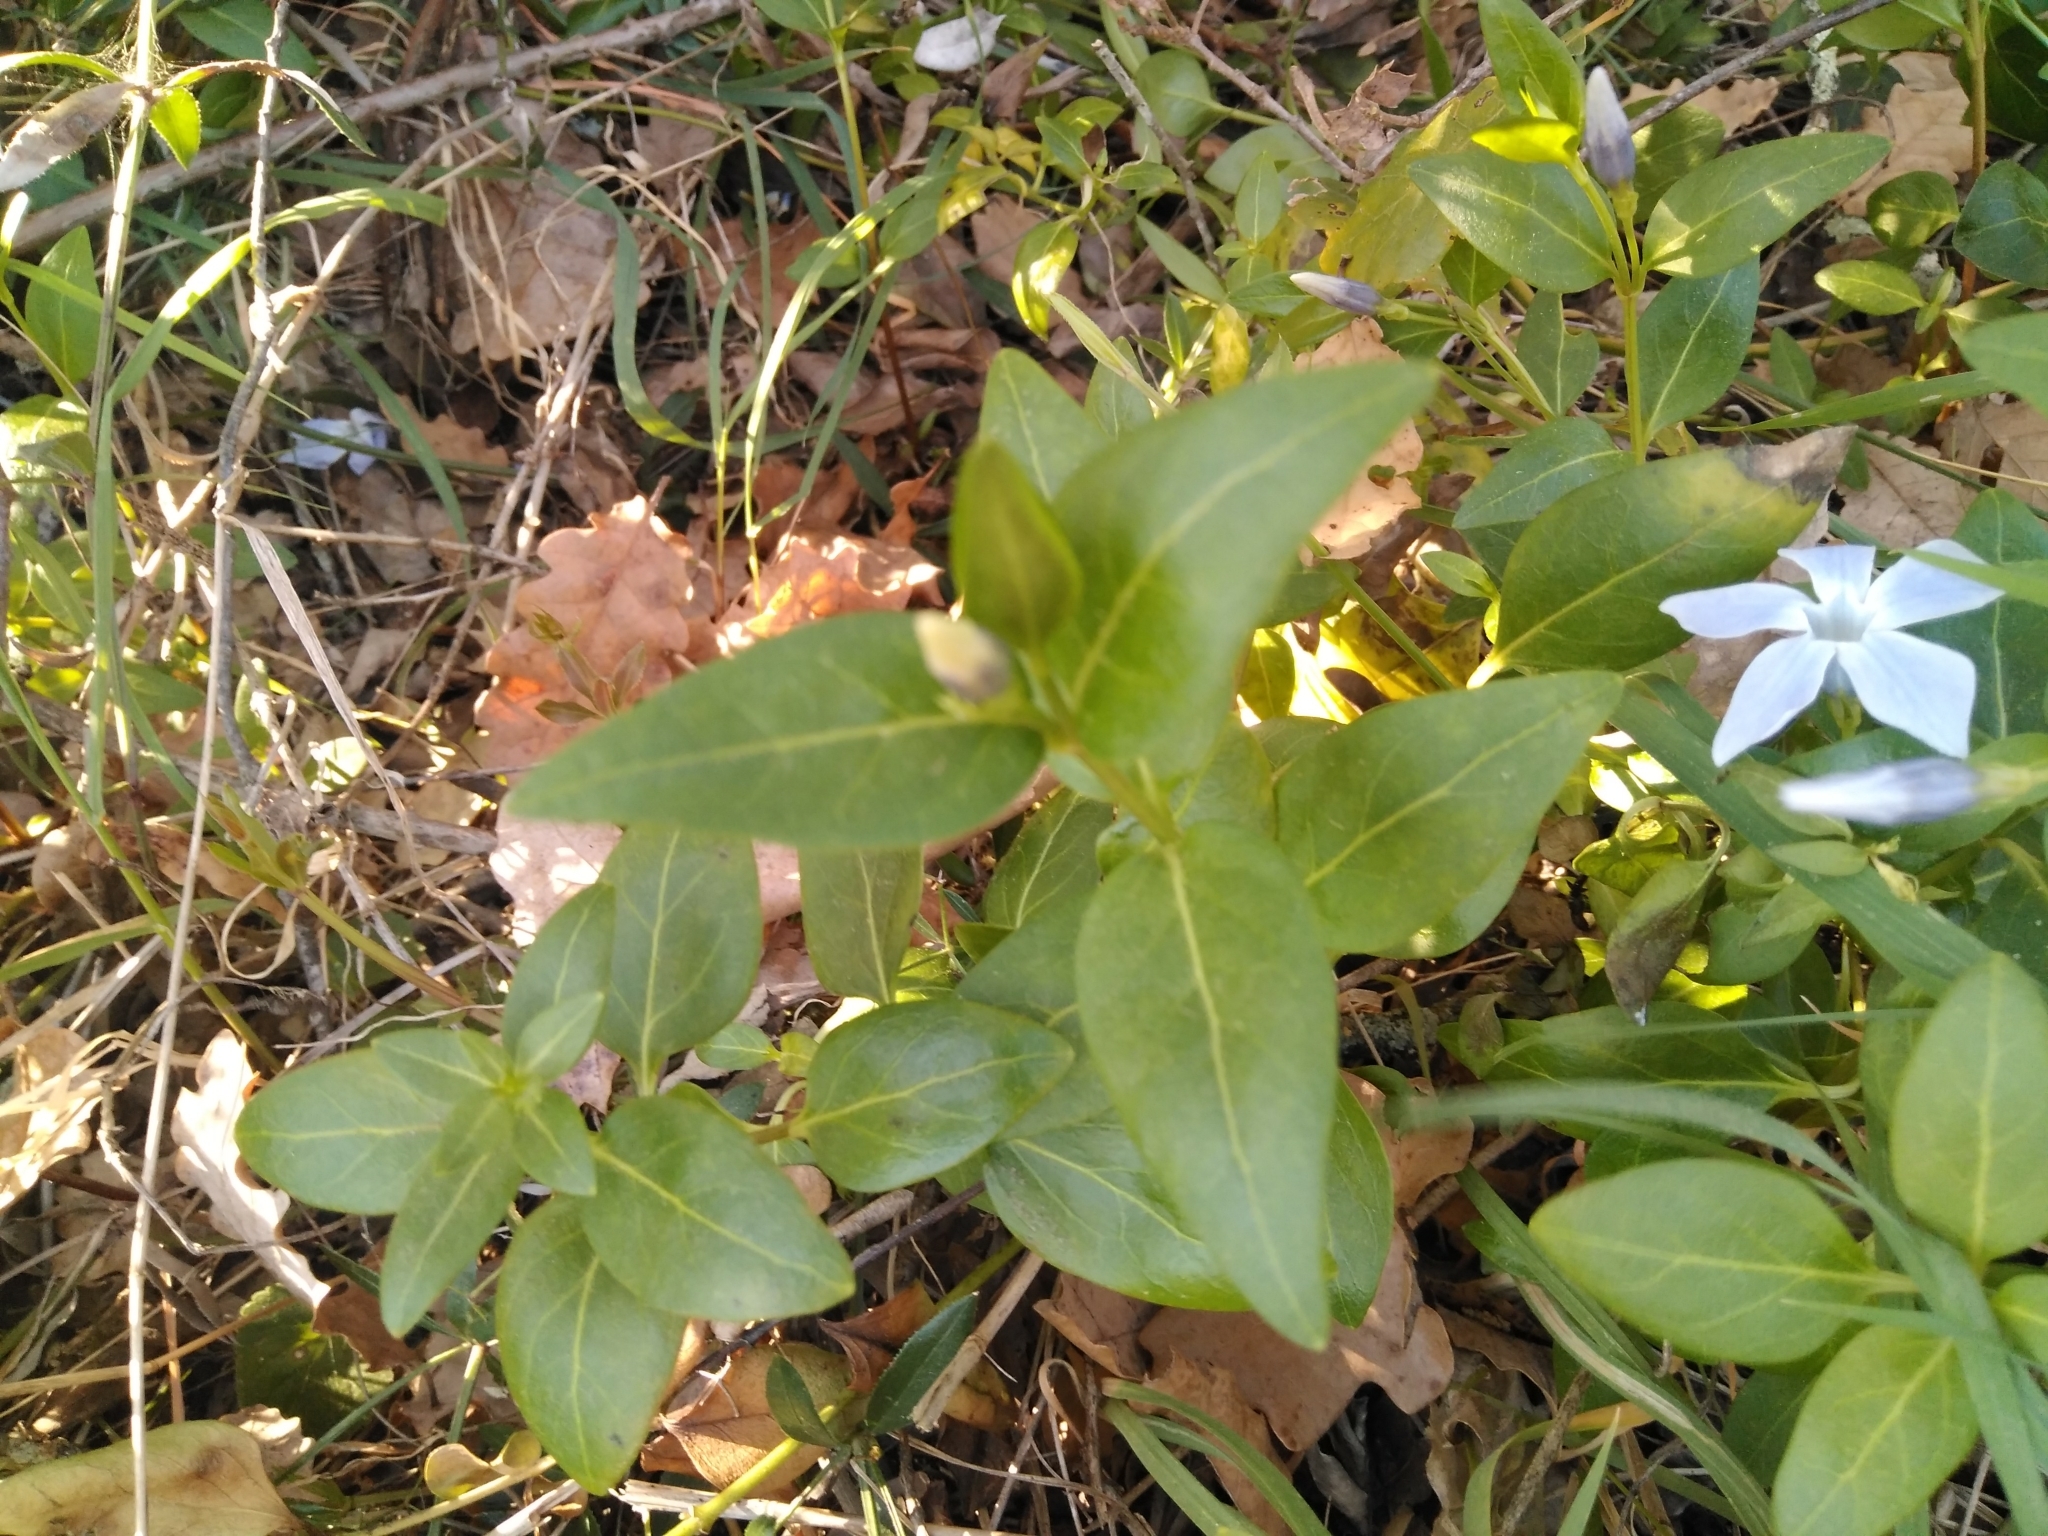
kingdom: Plantae
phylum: Tracheophyta
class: Magnoliopsida
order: Gentianales
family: Apocynaceae
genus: Vinca
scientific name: Vinca difformis
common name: Intermediate periwinkle
